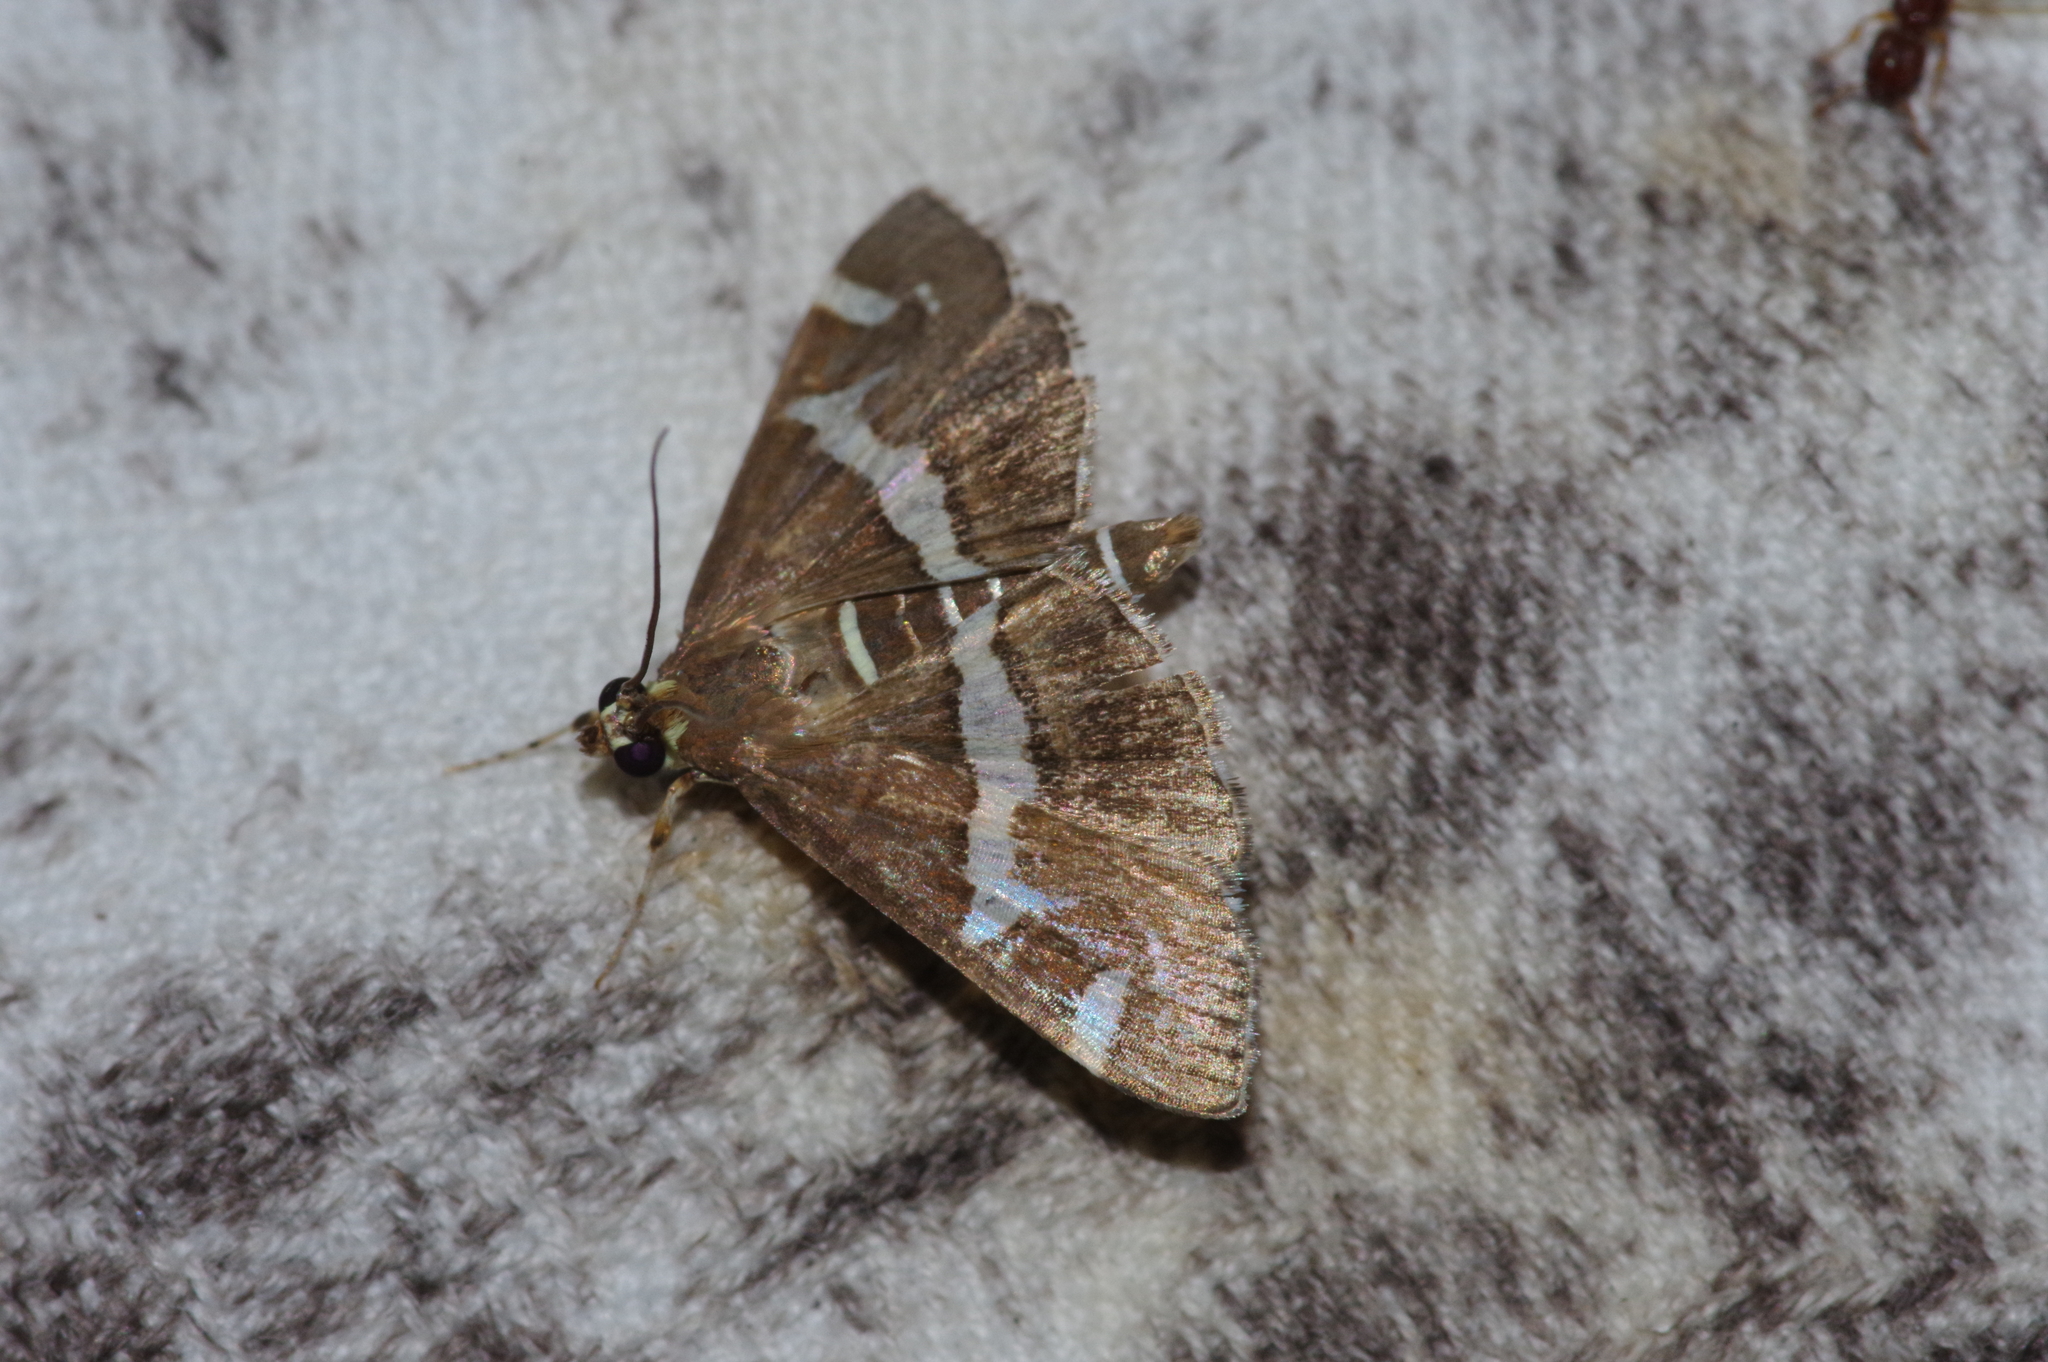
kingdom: Animalia
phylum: Arthropoda
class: Insecta
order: Lepidoptera
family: Crambidae
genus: Spoladea
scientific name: Spoladea recurvalis
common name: Beet webworm moth
